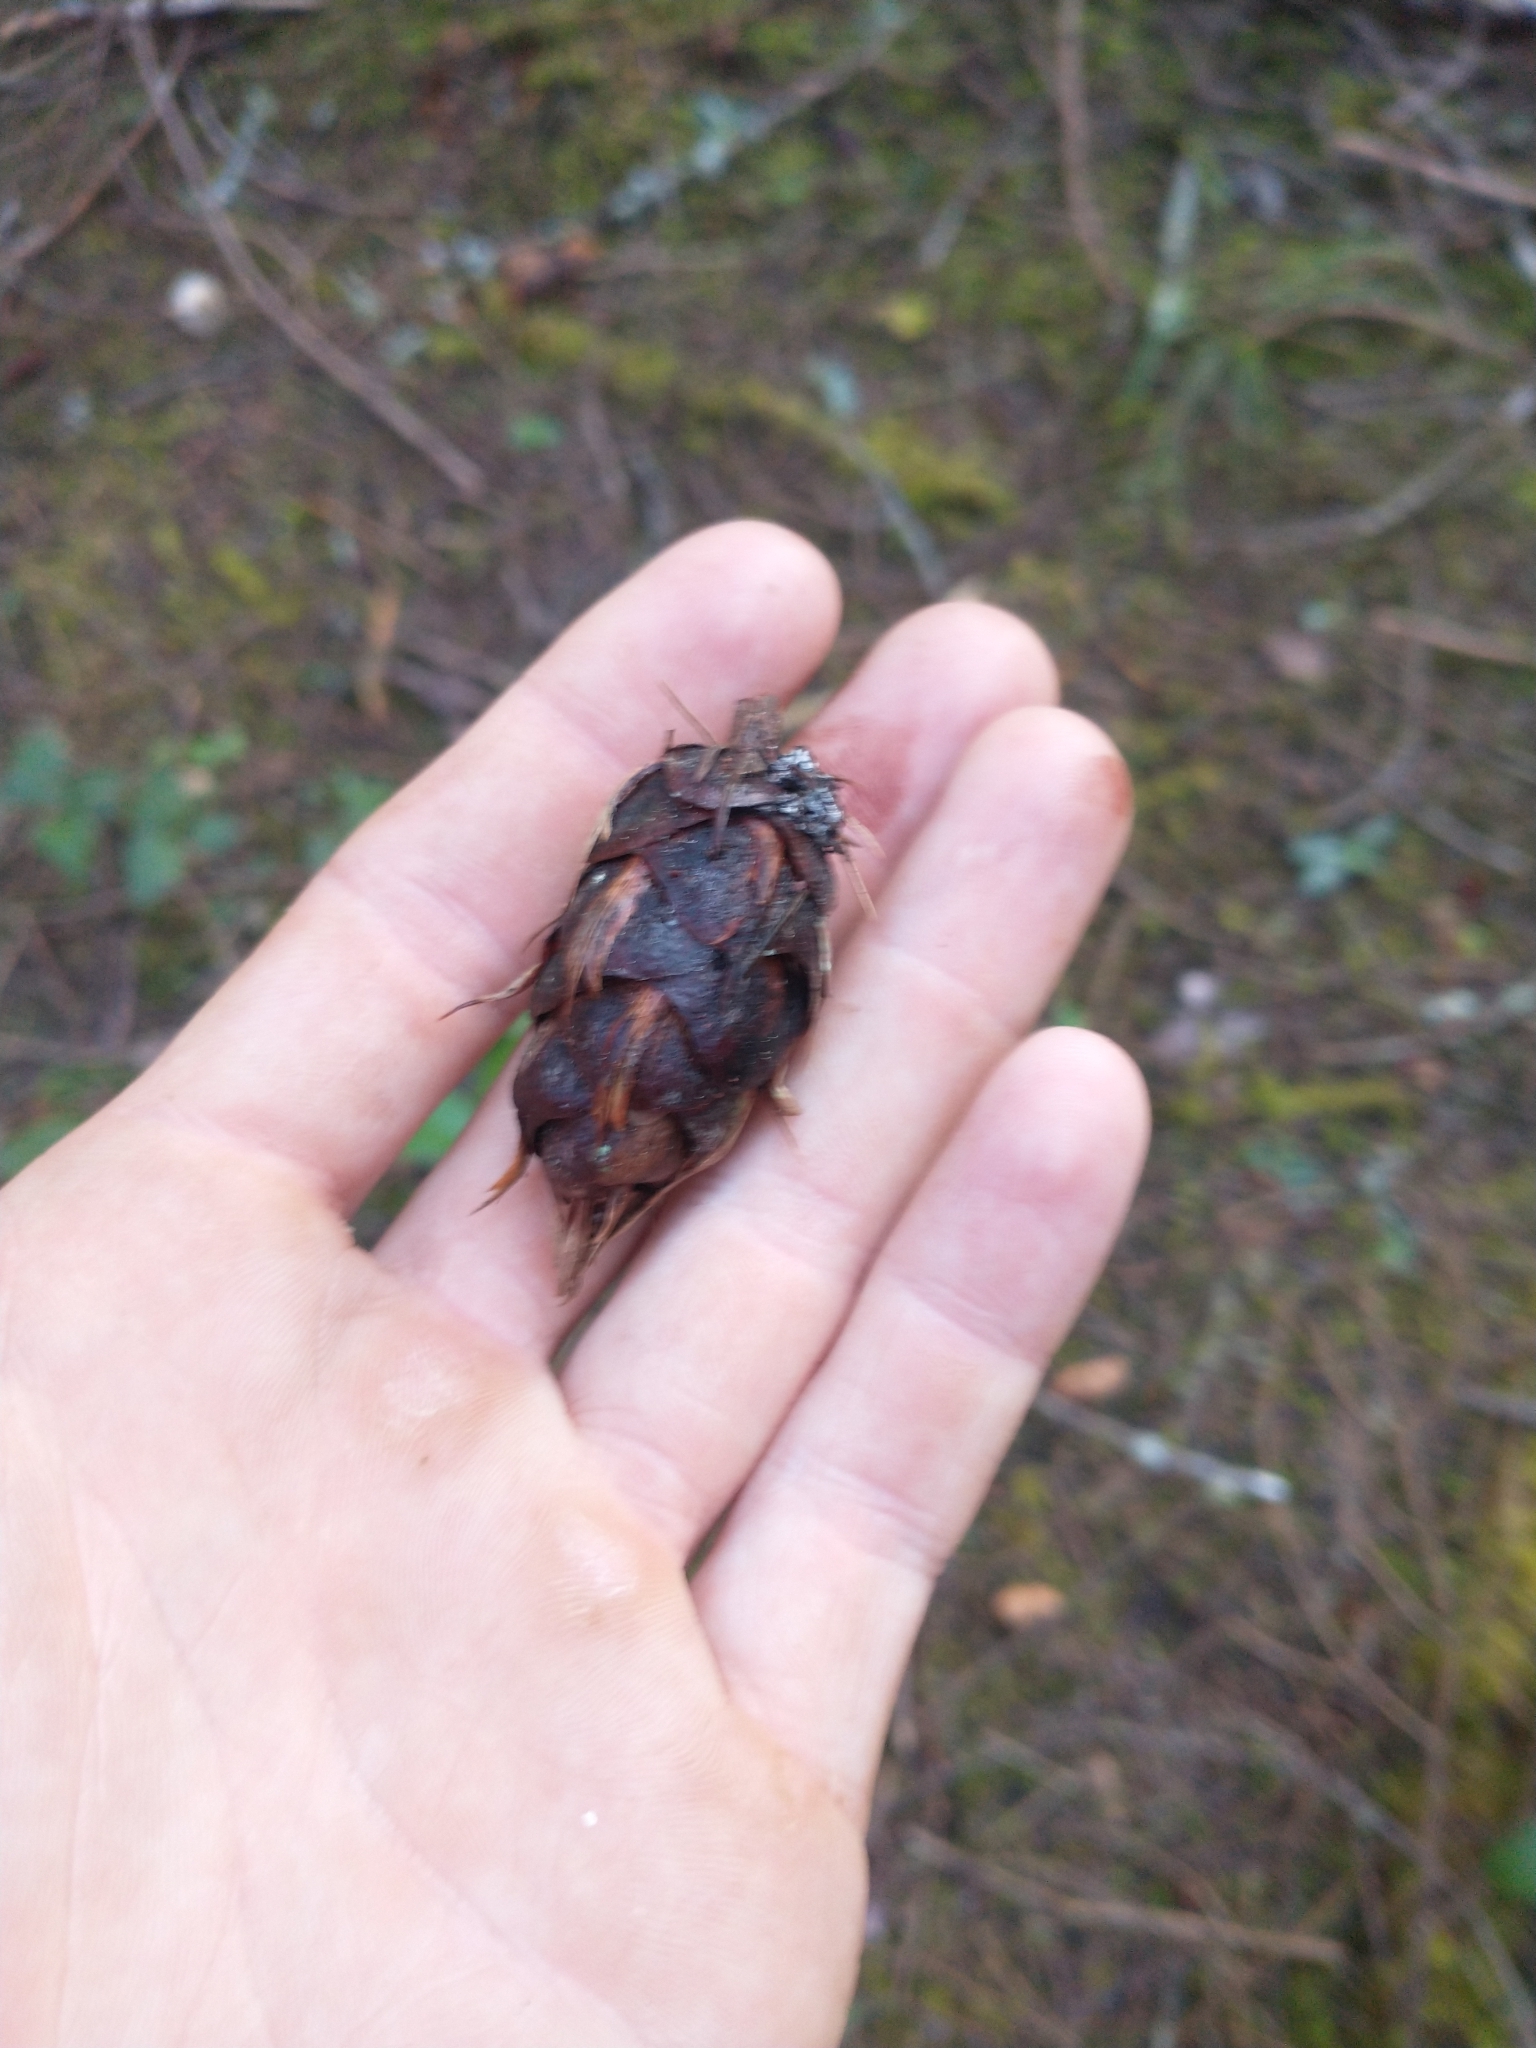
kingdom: Plantae
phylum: Tracheophyta
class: Pinopsida
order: Pinales
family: Pinaceae
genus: Pseudotsuga
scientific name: Pseudotsuga menziesii
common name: Douglas fir
